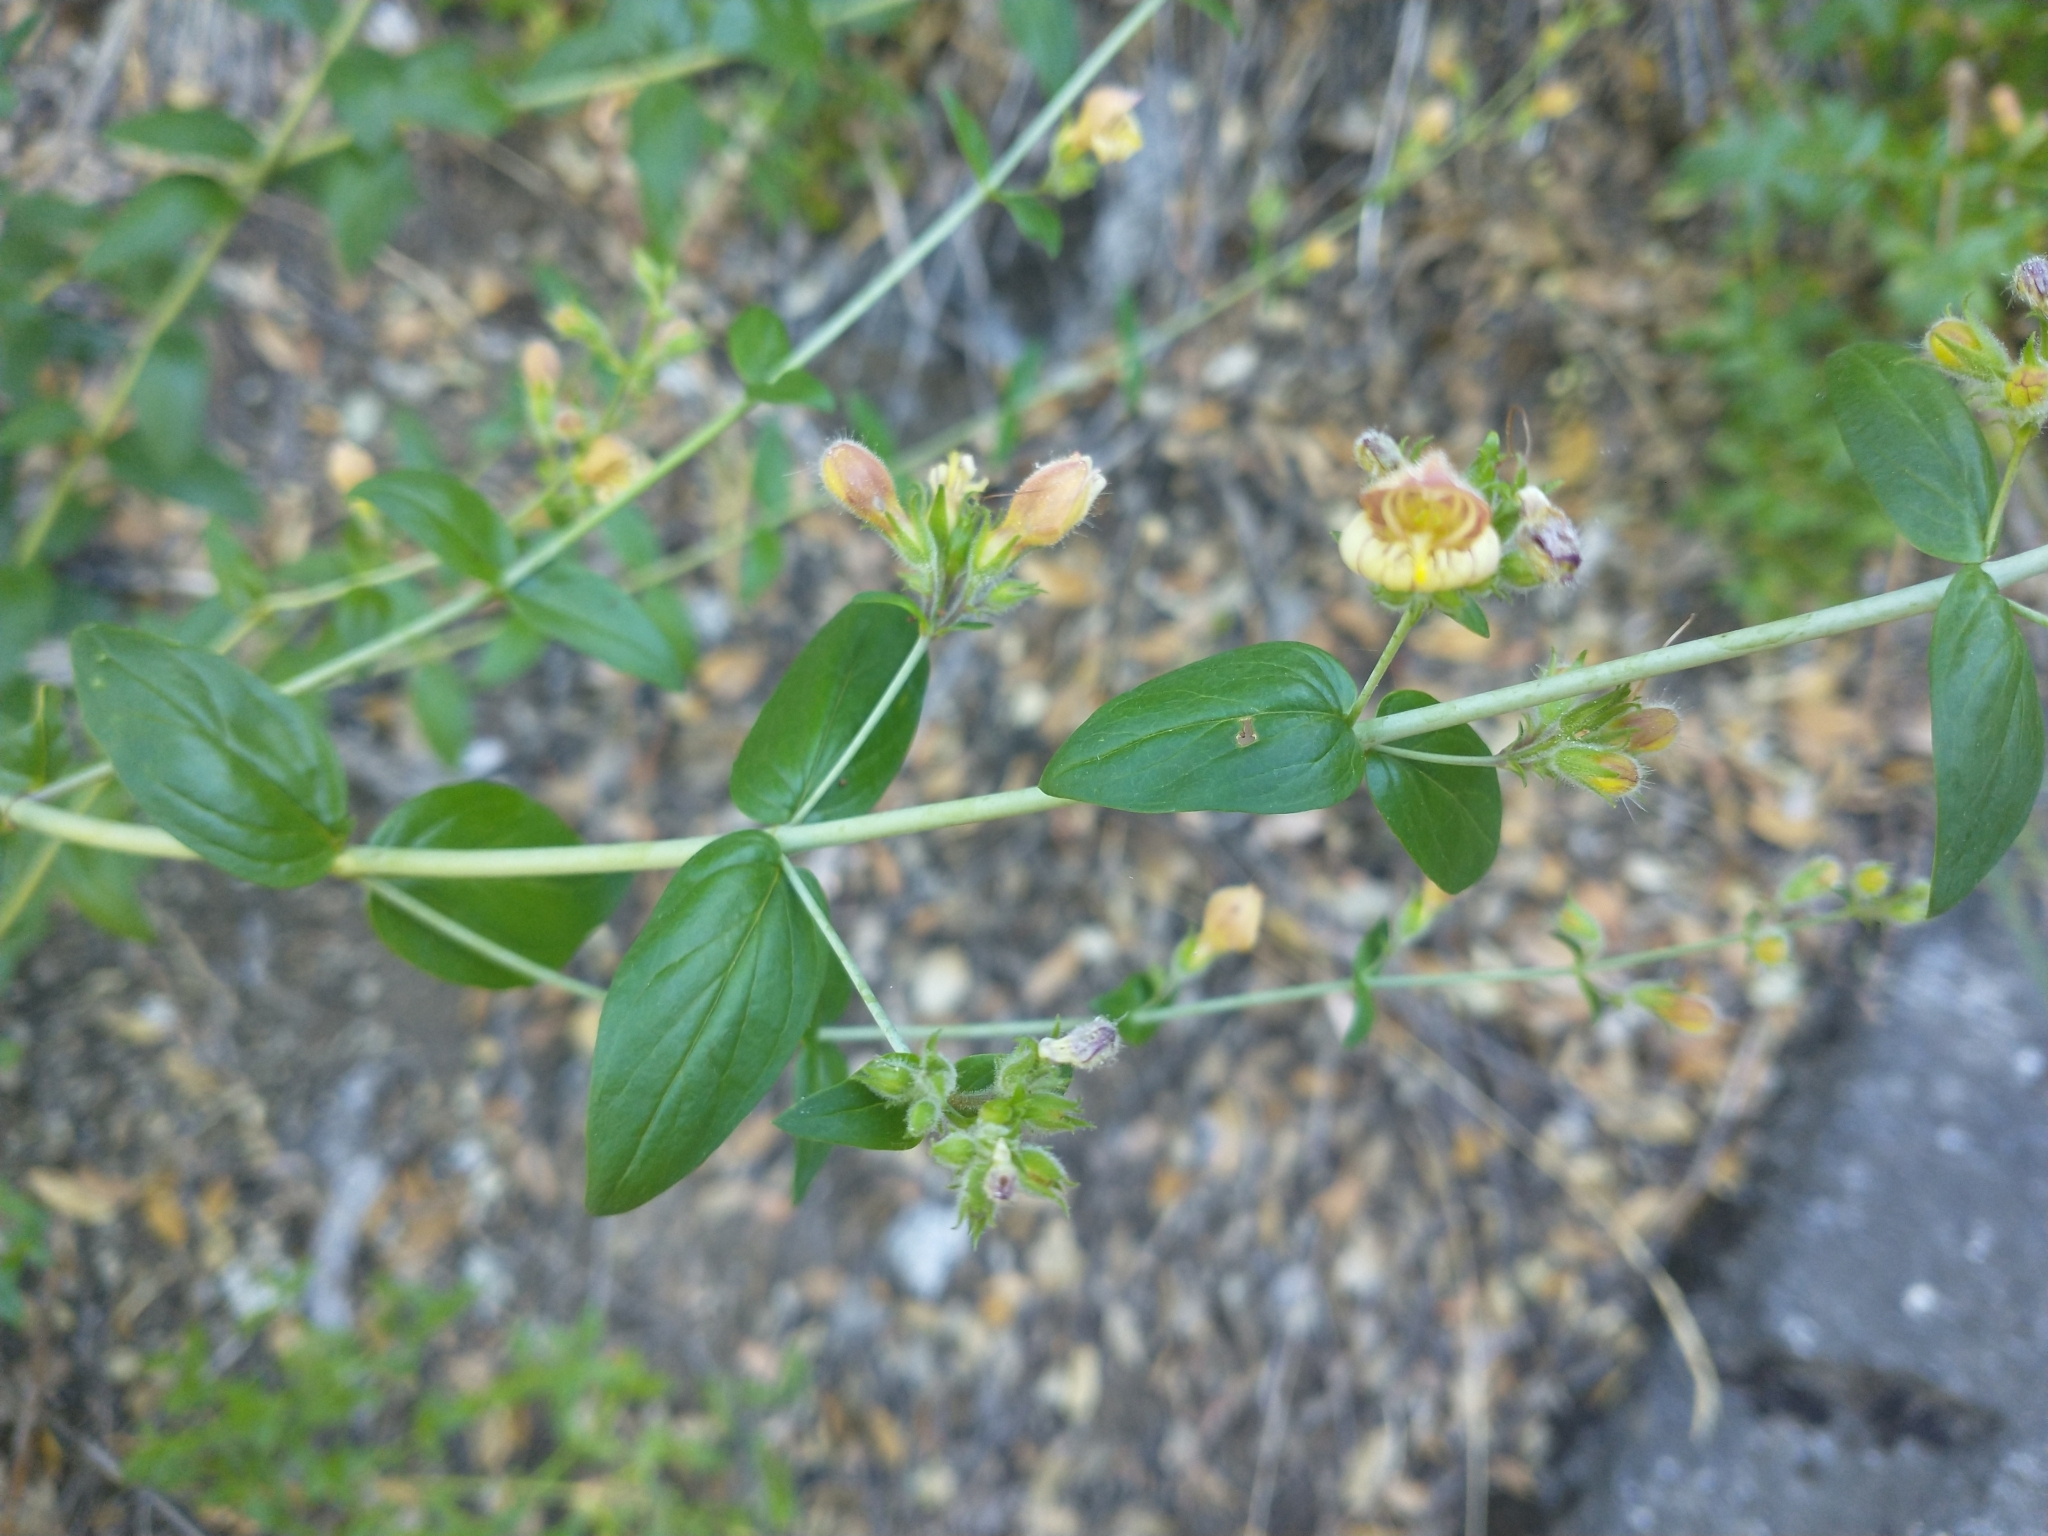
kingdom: Plantae
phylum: Tracheophyta
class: Magnoliopsida
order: Lamiales
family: Plantaginaceae
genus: Keckiella
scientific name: Keckiella lemmonii
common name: Lemmon's keckiella
